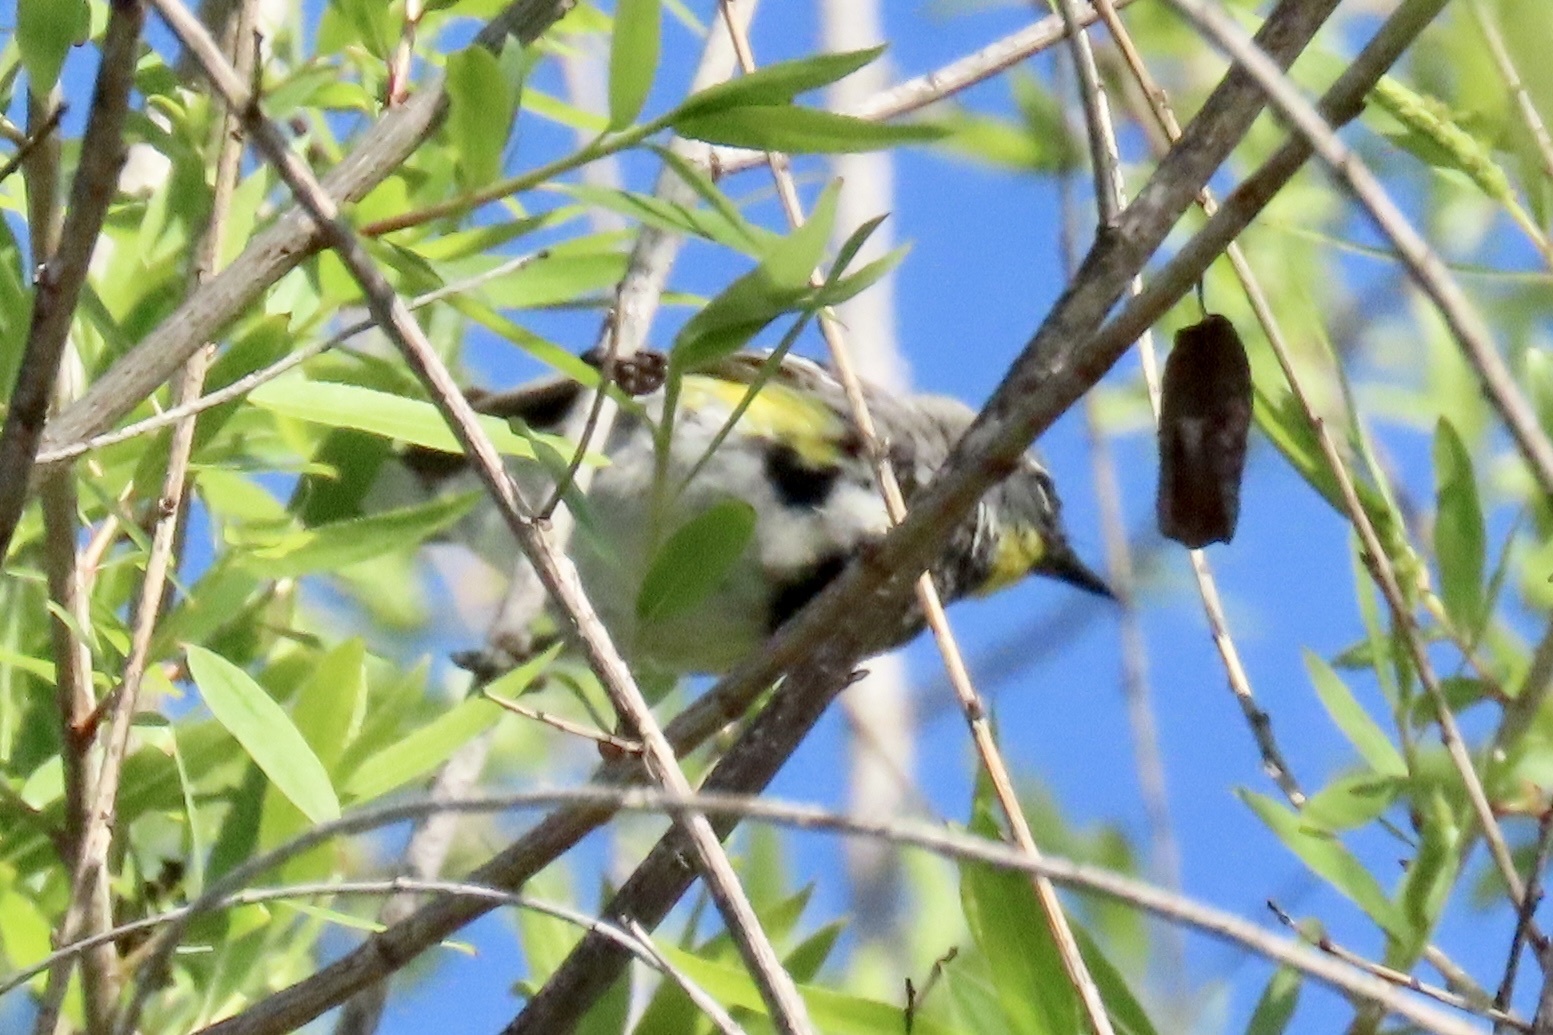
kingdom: Animalia
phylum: Chordata
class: Aves
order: Passeriformes
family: Parulidae
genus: Setophaga
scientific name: Setophaga coronata
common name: Myrtle warbler
